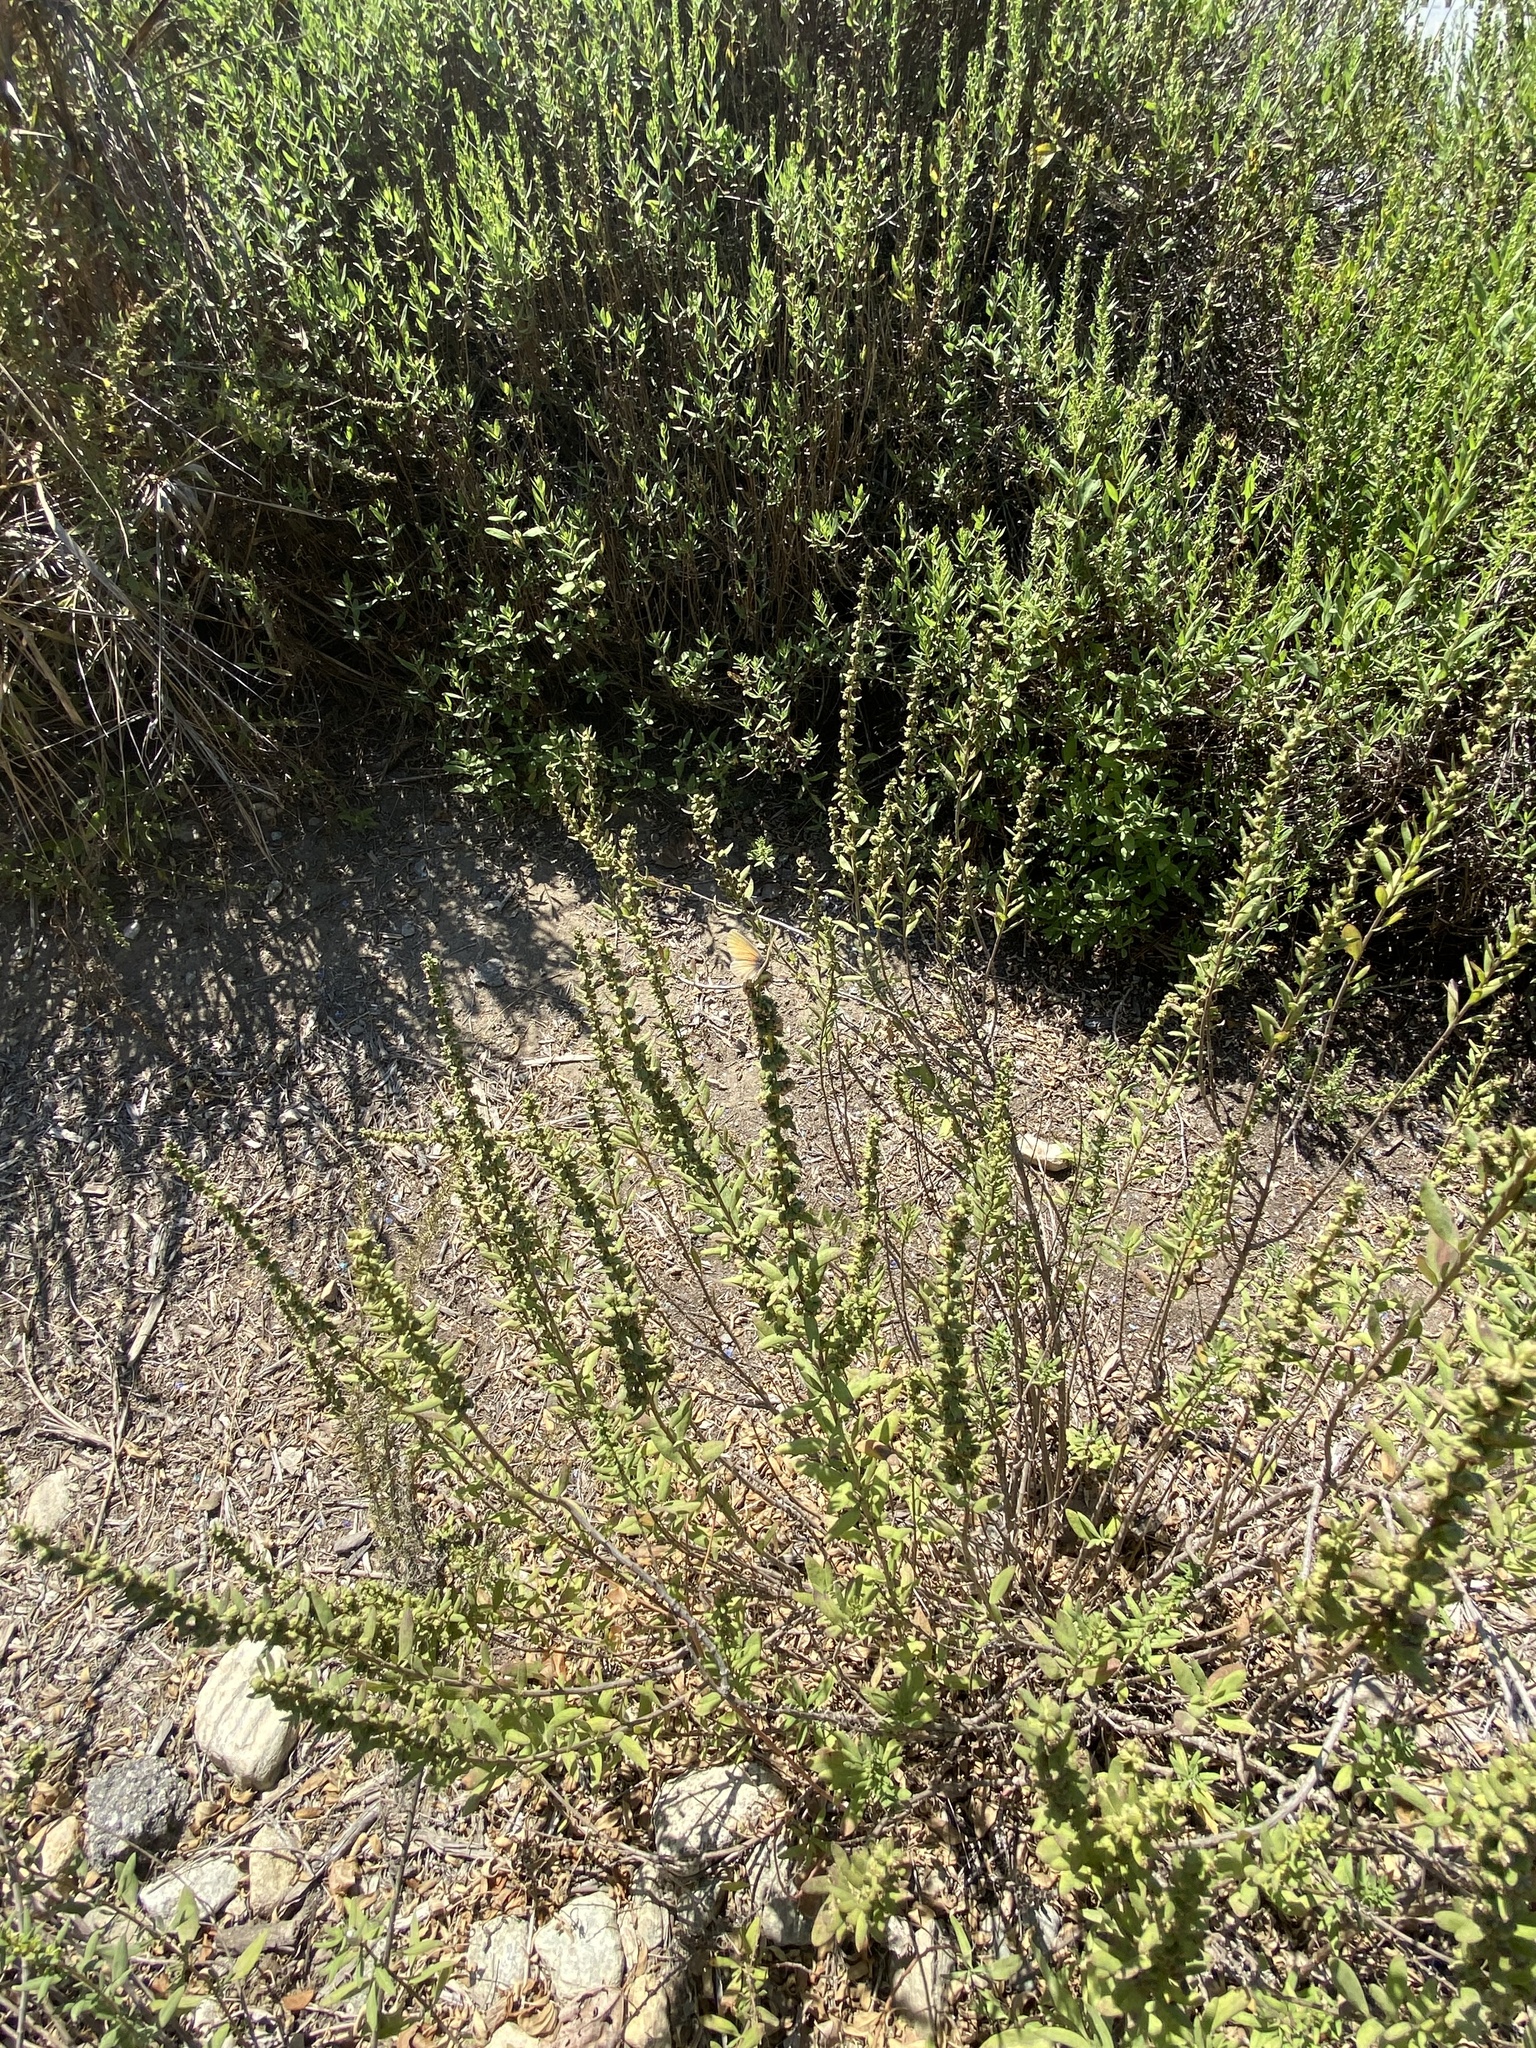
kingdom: Animalia
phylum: Arthropoda
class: Insecta
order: Lepidoptera
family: Lycaenidae
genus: Leptotes
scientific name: Leptotes marina
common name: Marine blue
